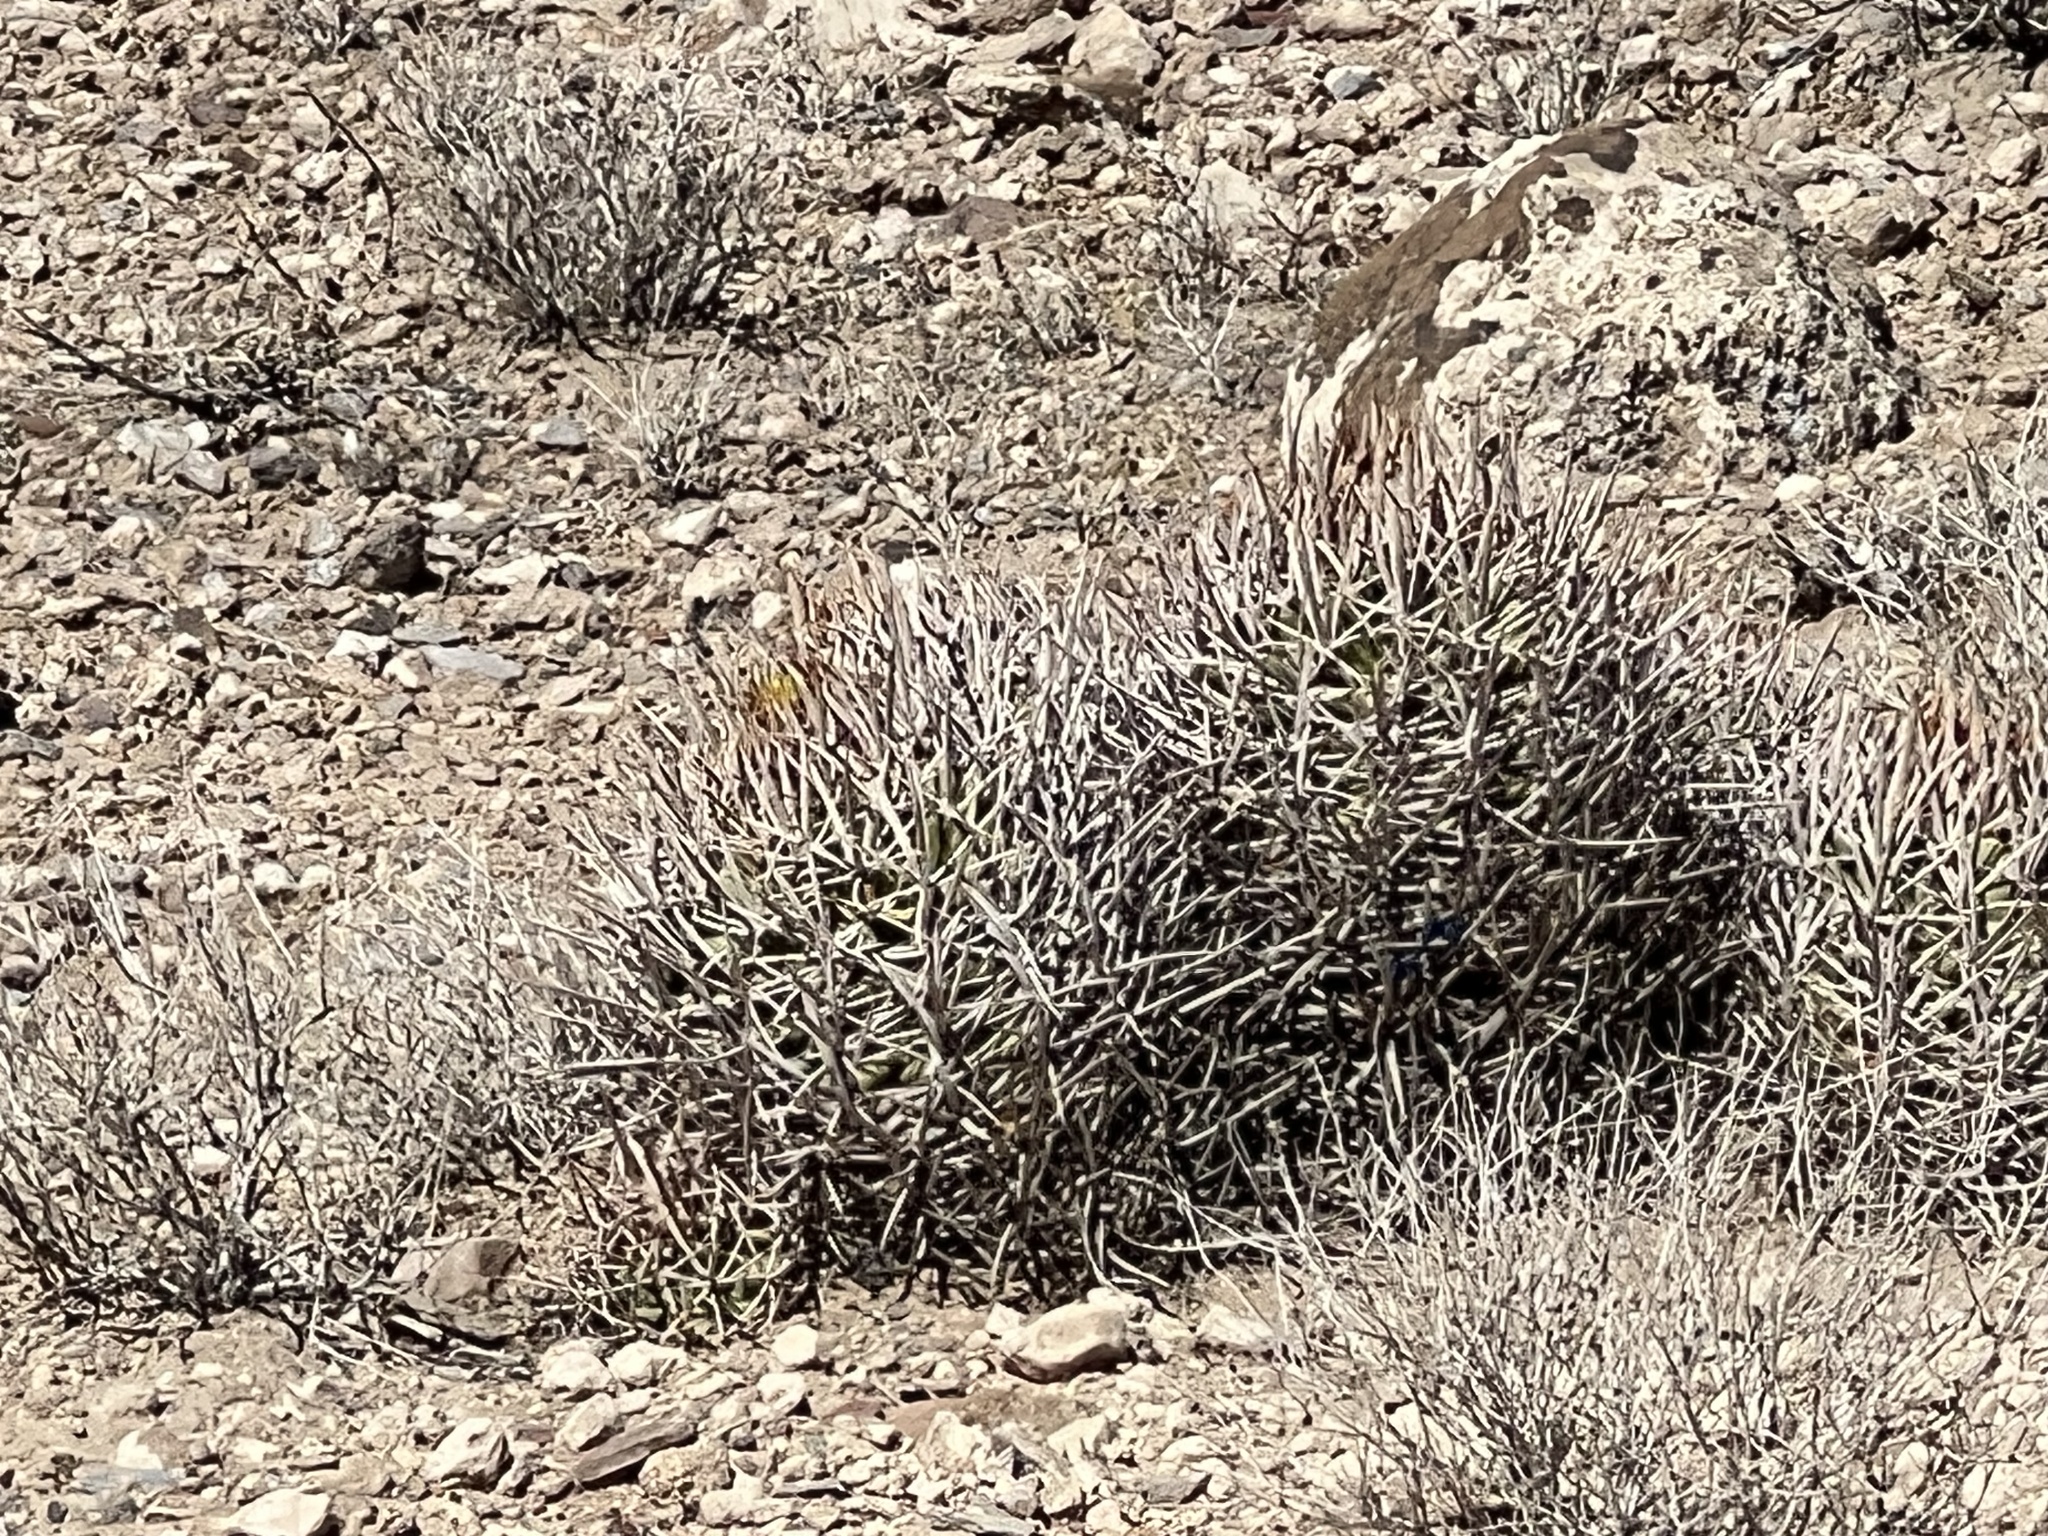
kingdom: Plantae
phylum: Tracheophyta
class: Magnoliopsida
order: Caryophyllales
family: Cactaceae
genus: Echinocactus
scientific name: Echinocactus polycephalus
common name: Cottontop cactus
